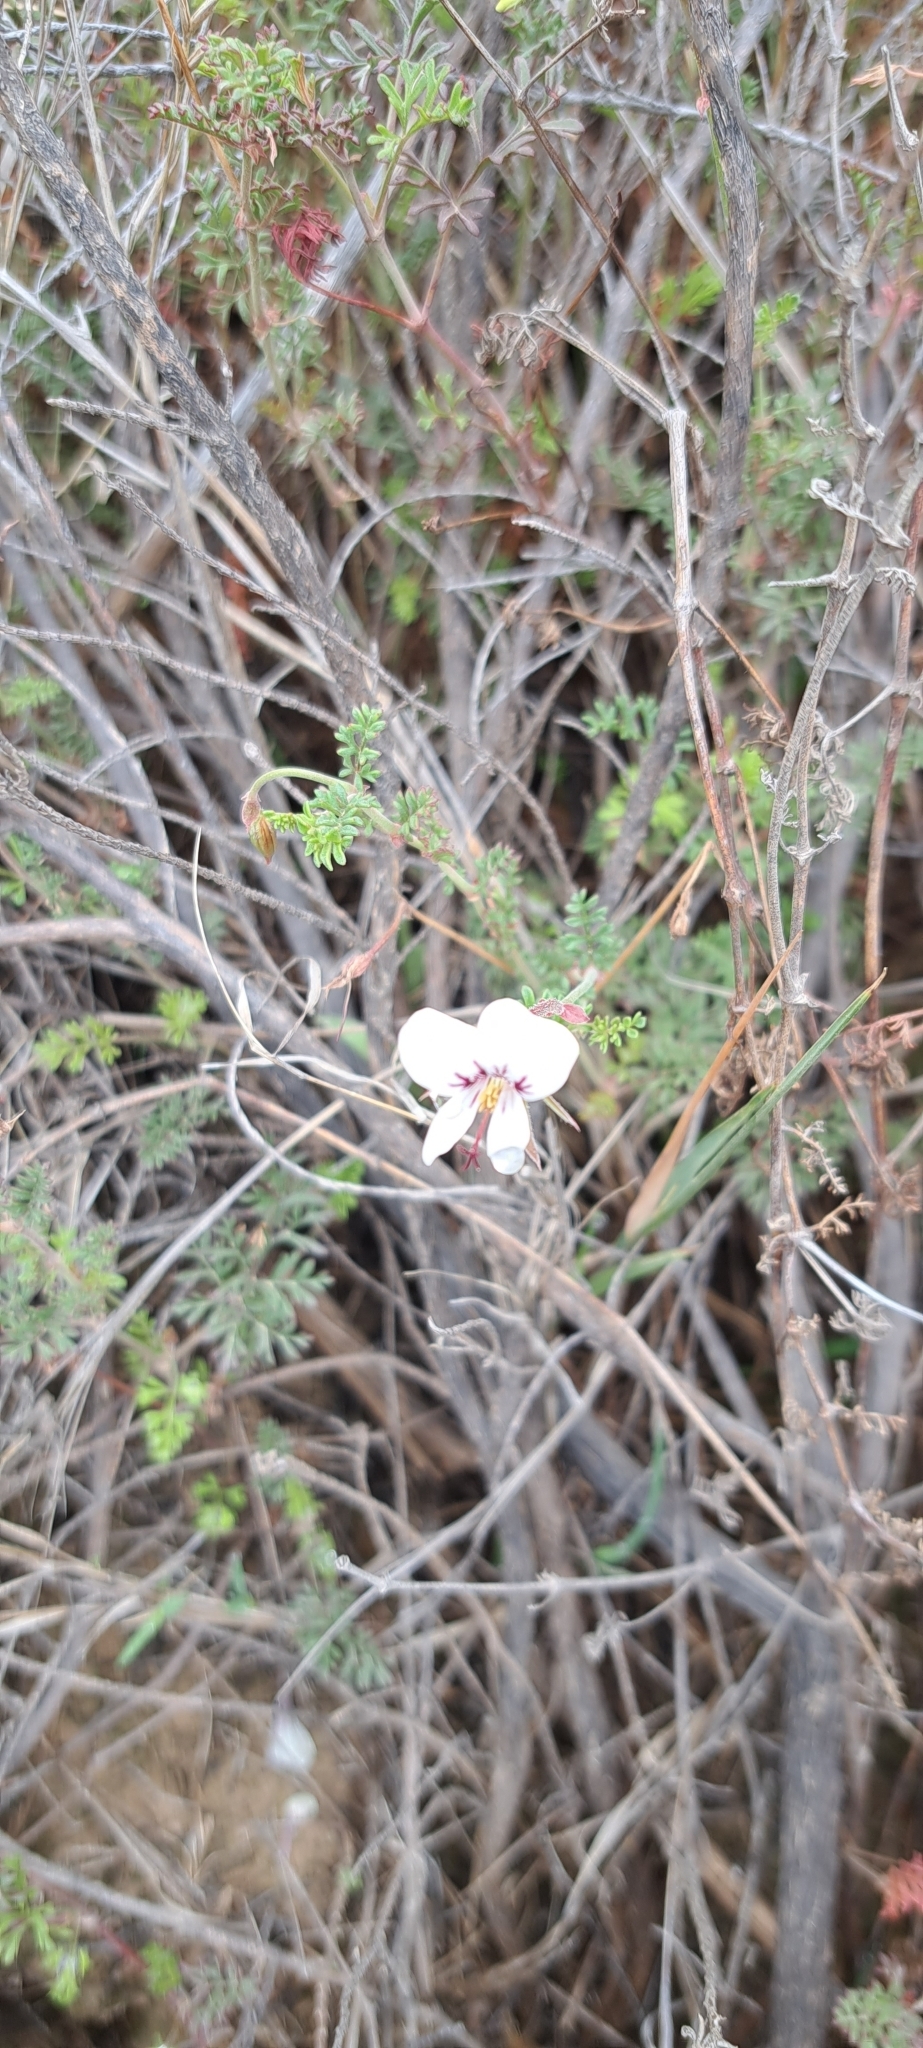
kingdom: Plantae
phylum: Tracheophyta
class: Magnoliopsida
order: Geraniales
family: Geraniaceae
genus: Pelargonium
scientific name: Pelargonium caucalifolium
